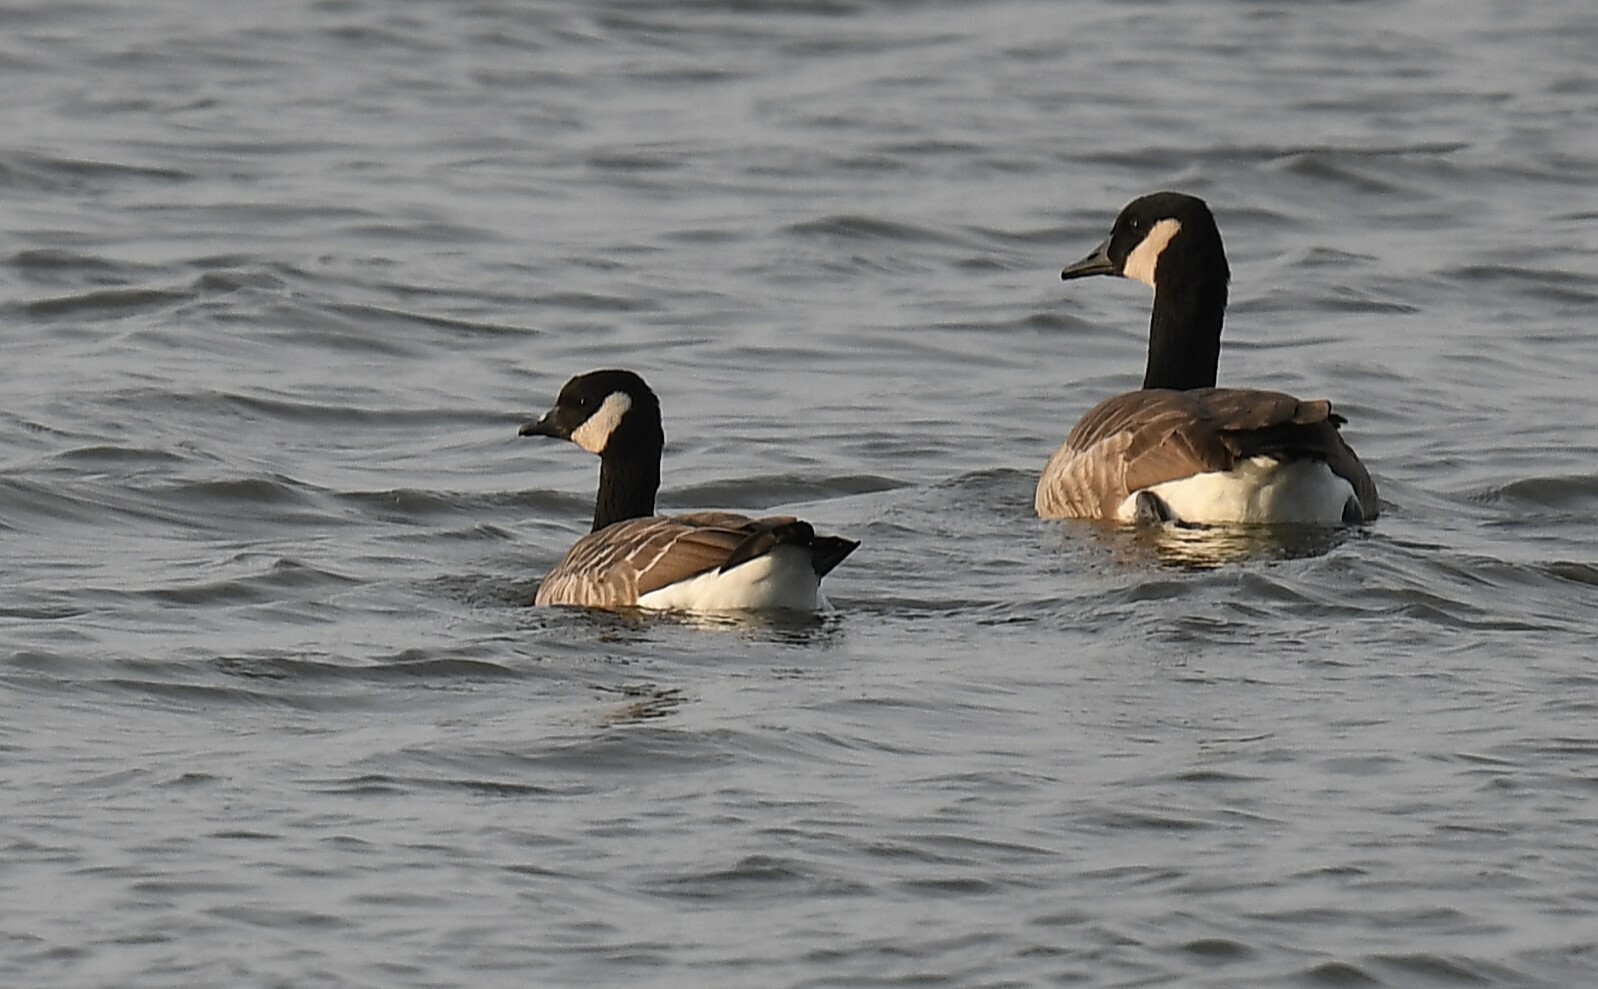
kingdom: Animalia
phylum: Chordata
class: Aves
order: Anseriformes
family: Anatidae
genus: Branta
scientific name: Branta hutchinsii
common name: Cackling goose
